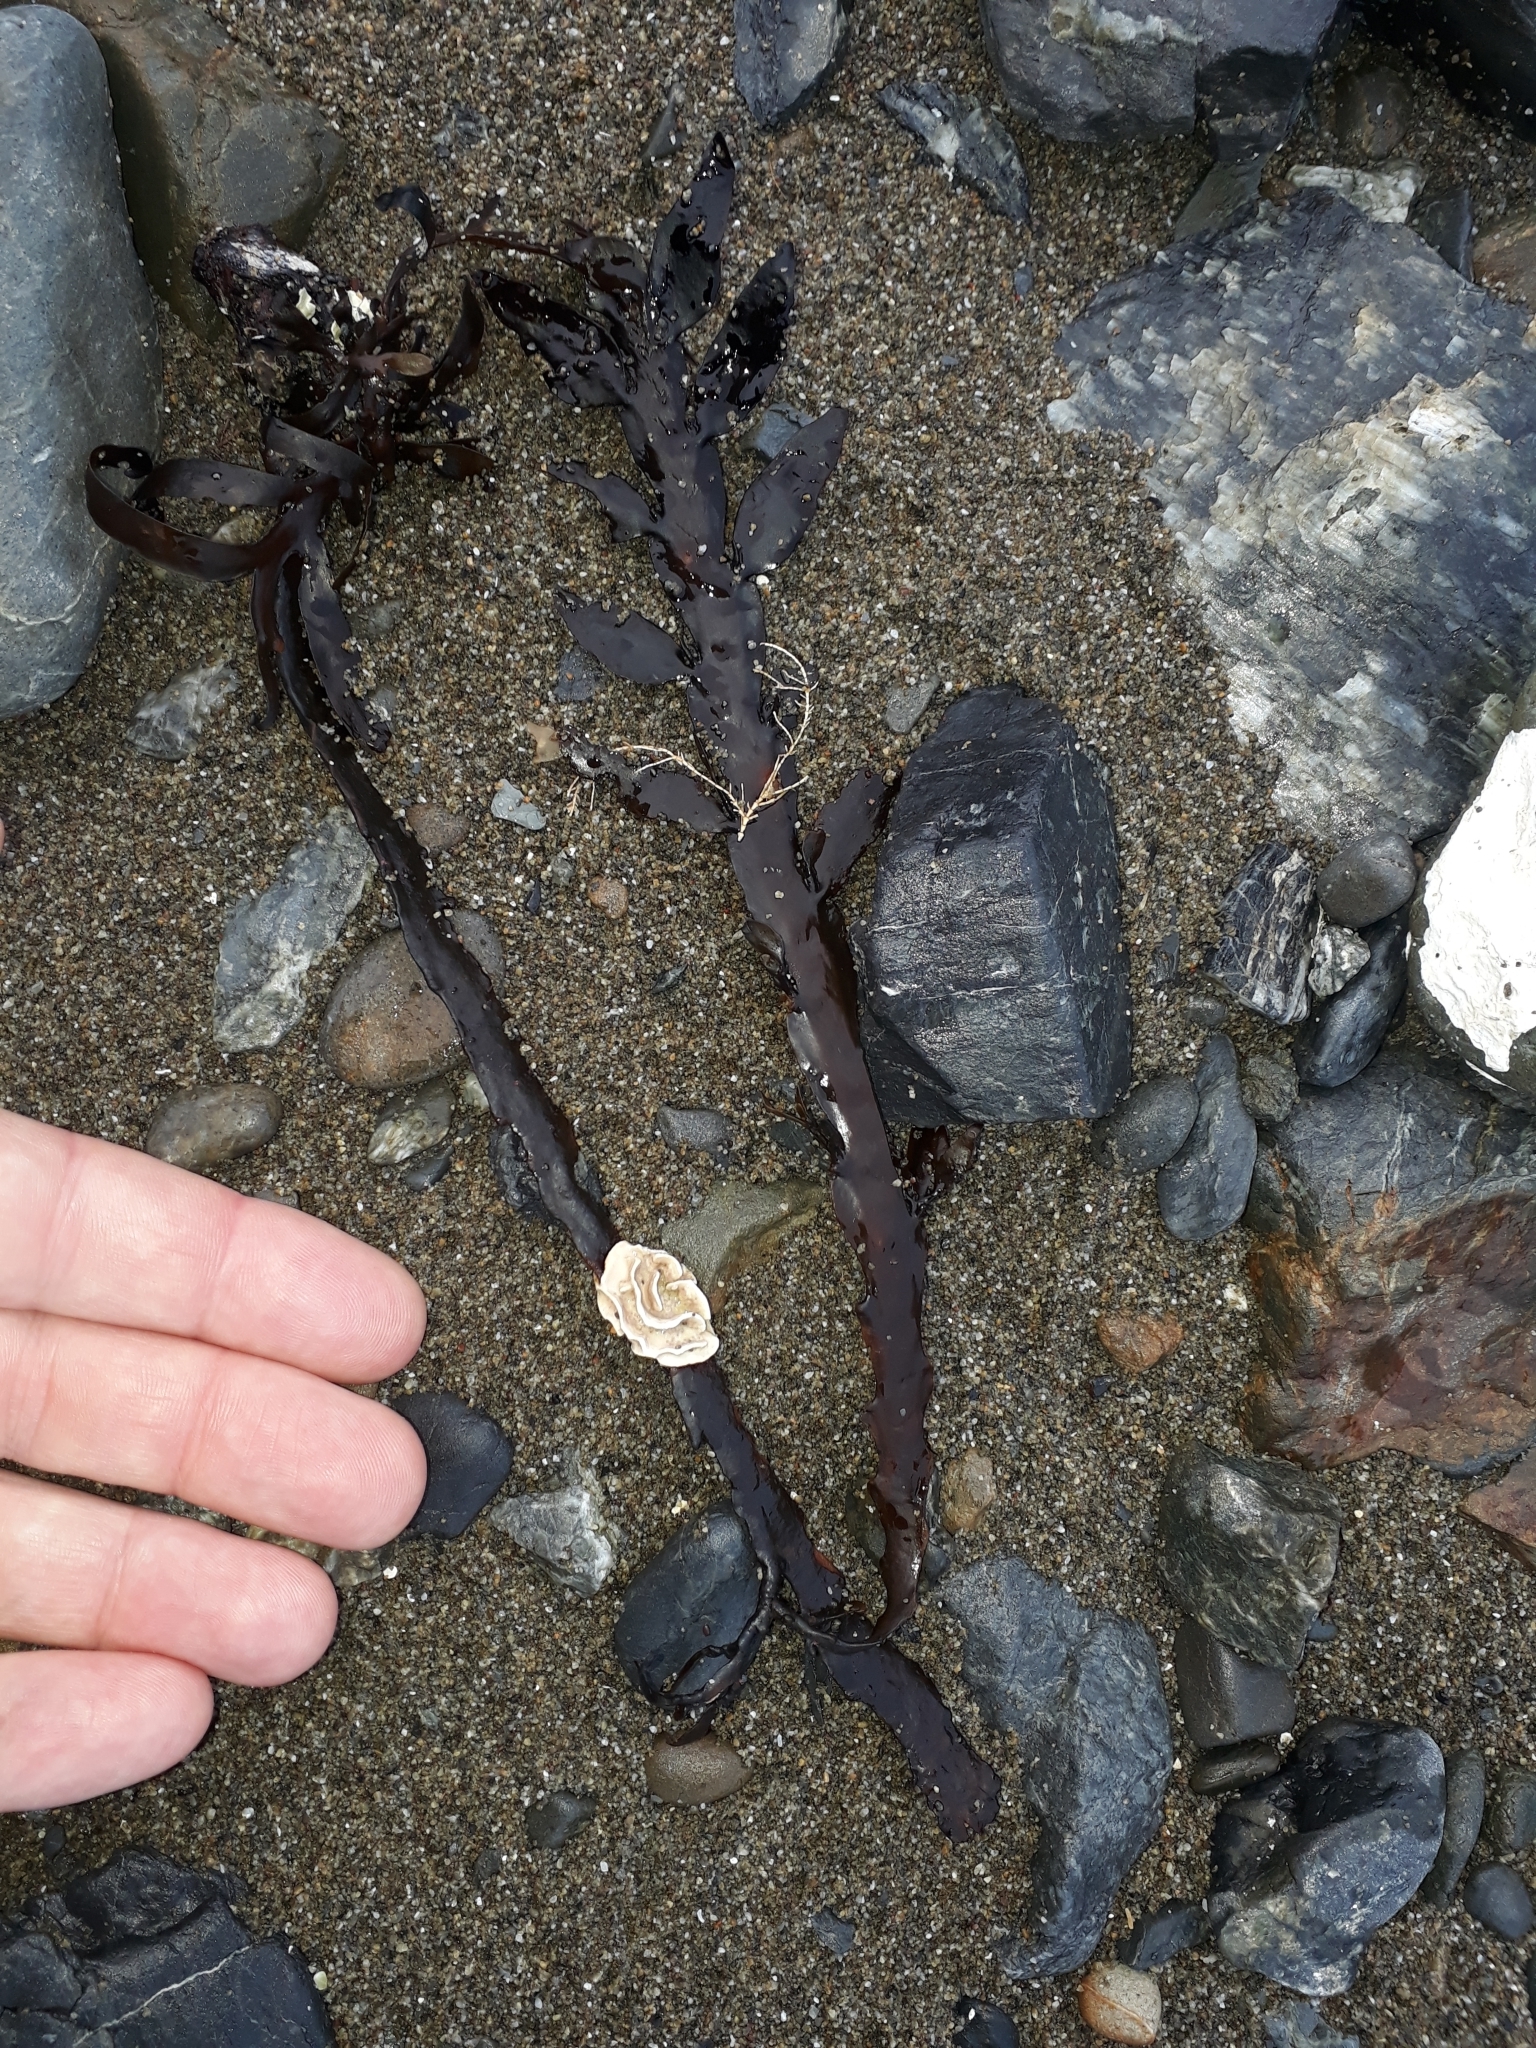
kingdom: Plantae
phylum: Rhodophyta
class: Florideophyceae
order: Corallinales
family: Lithophyllaceae
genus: Lithophyllum
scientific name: Lithophyllum carpophylli
